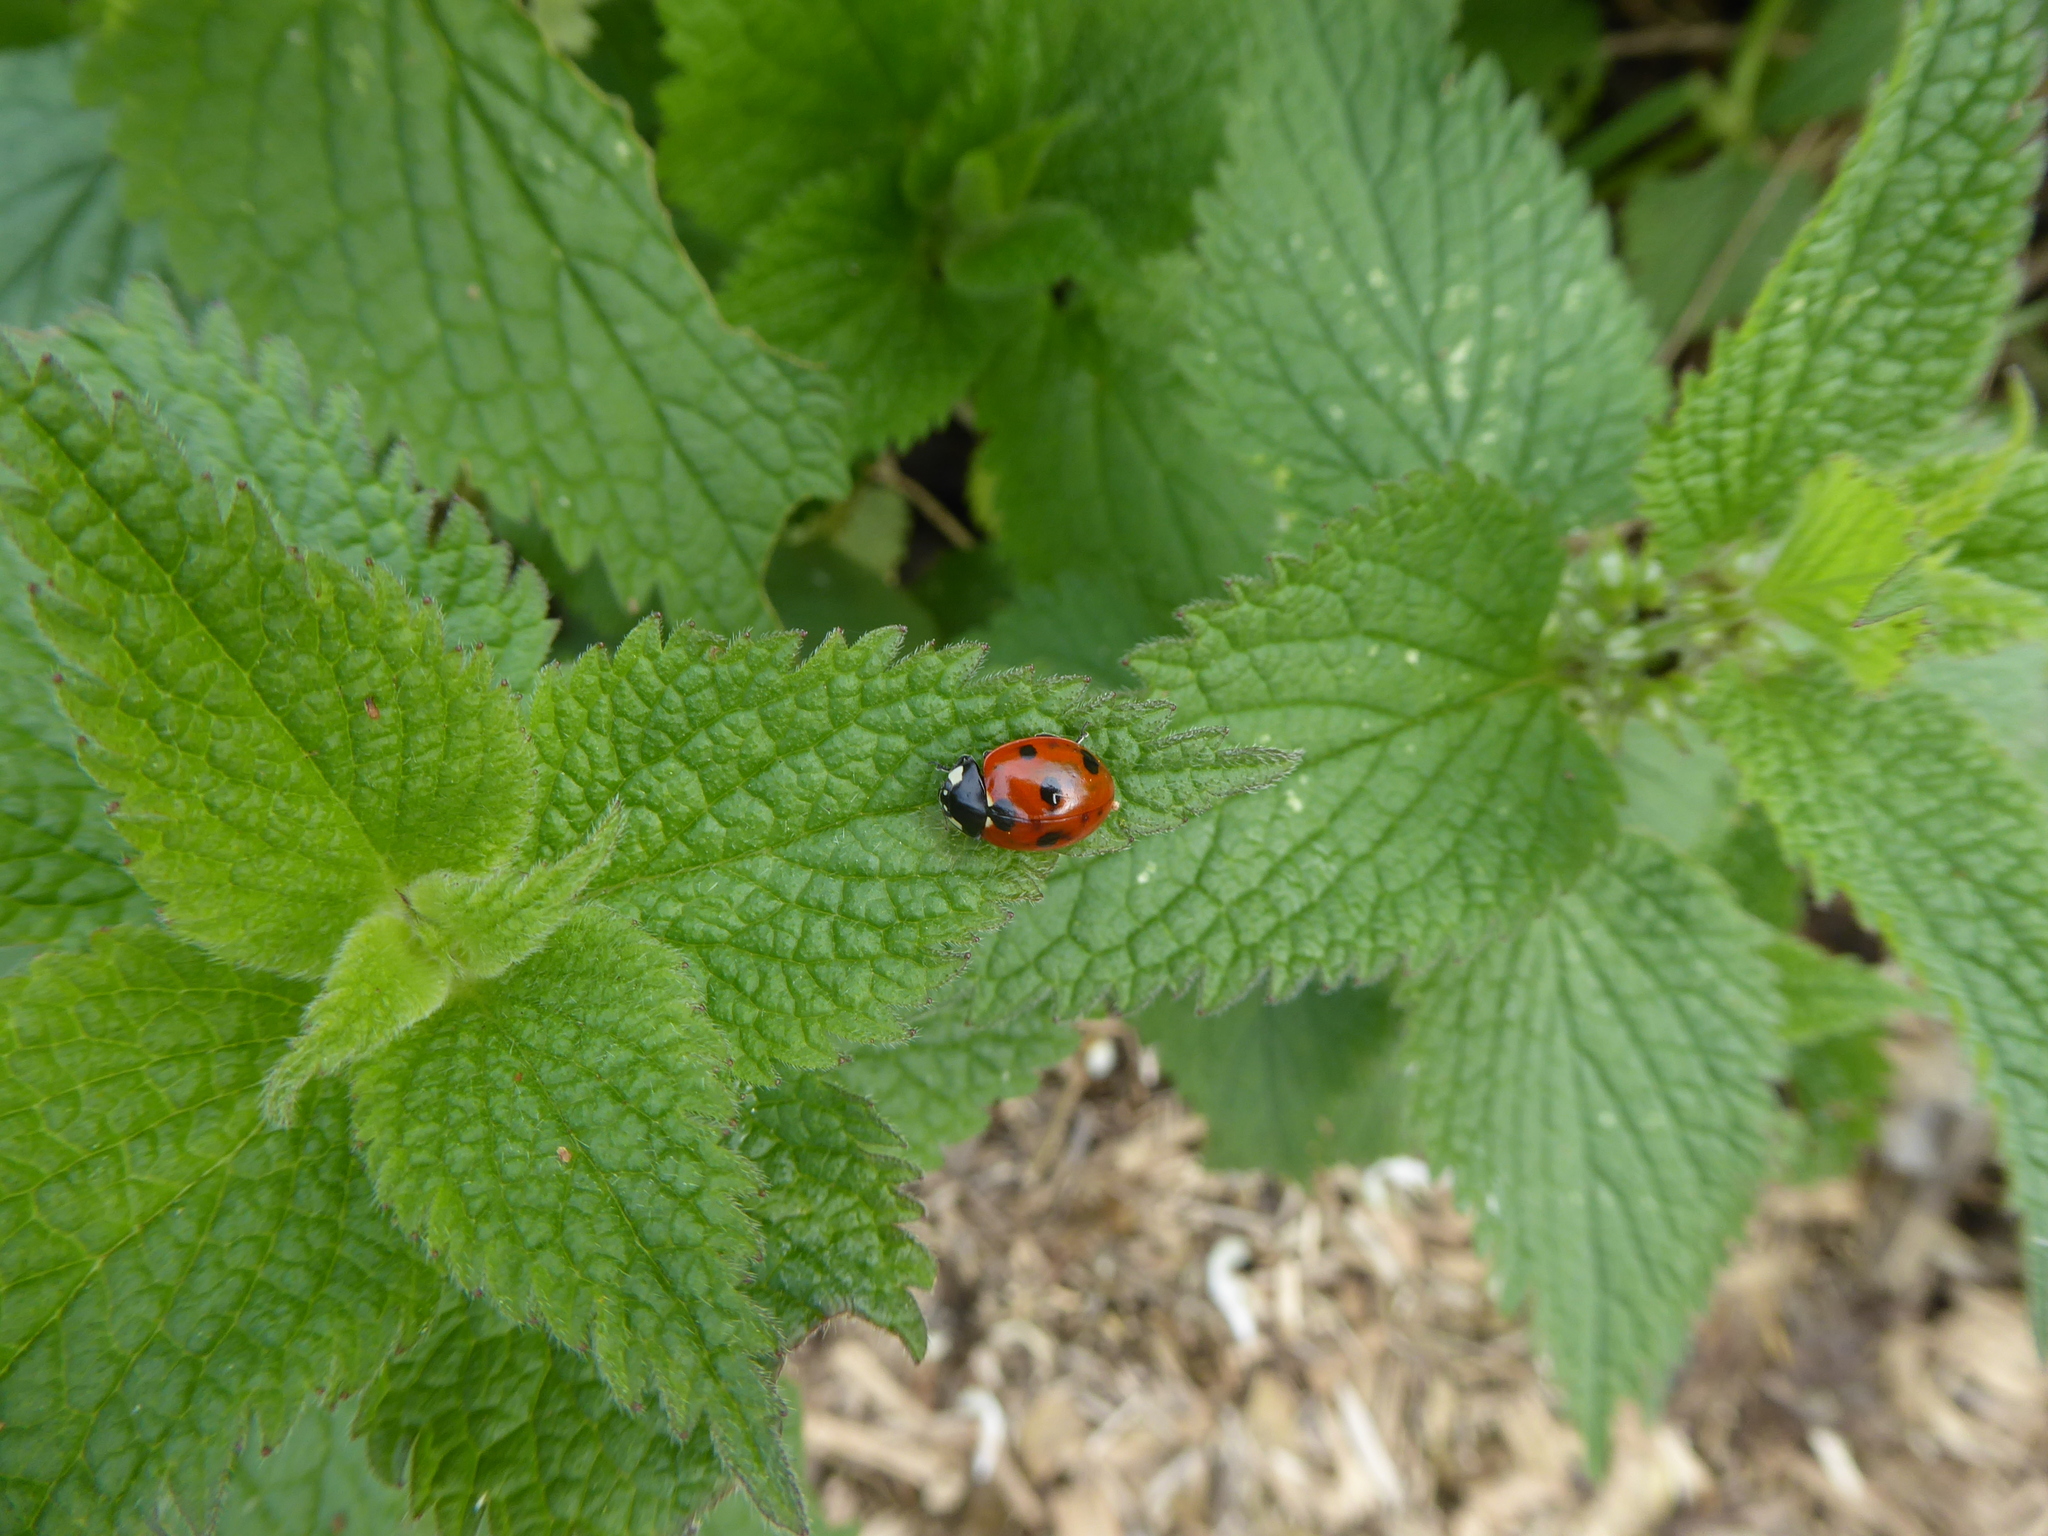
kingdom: Animalia
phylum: Arthropoda
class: Insecta
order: Coleoptera
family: Coccinellidae
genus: Coccinella
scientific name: Coccinella septempunctata
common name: Sevenspotted lady beetle
